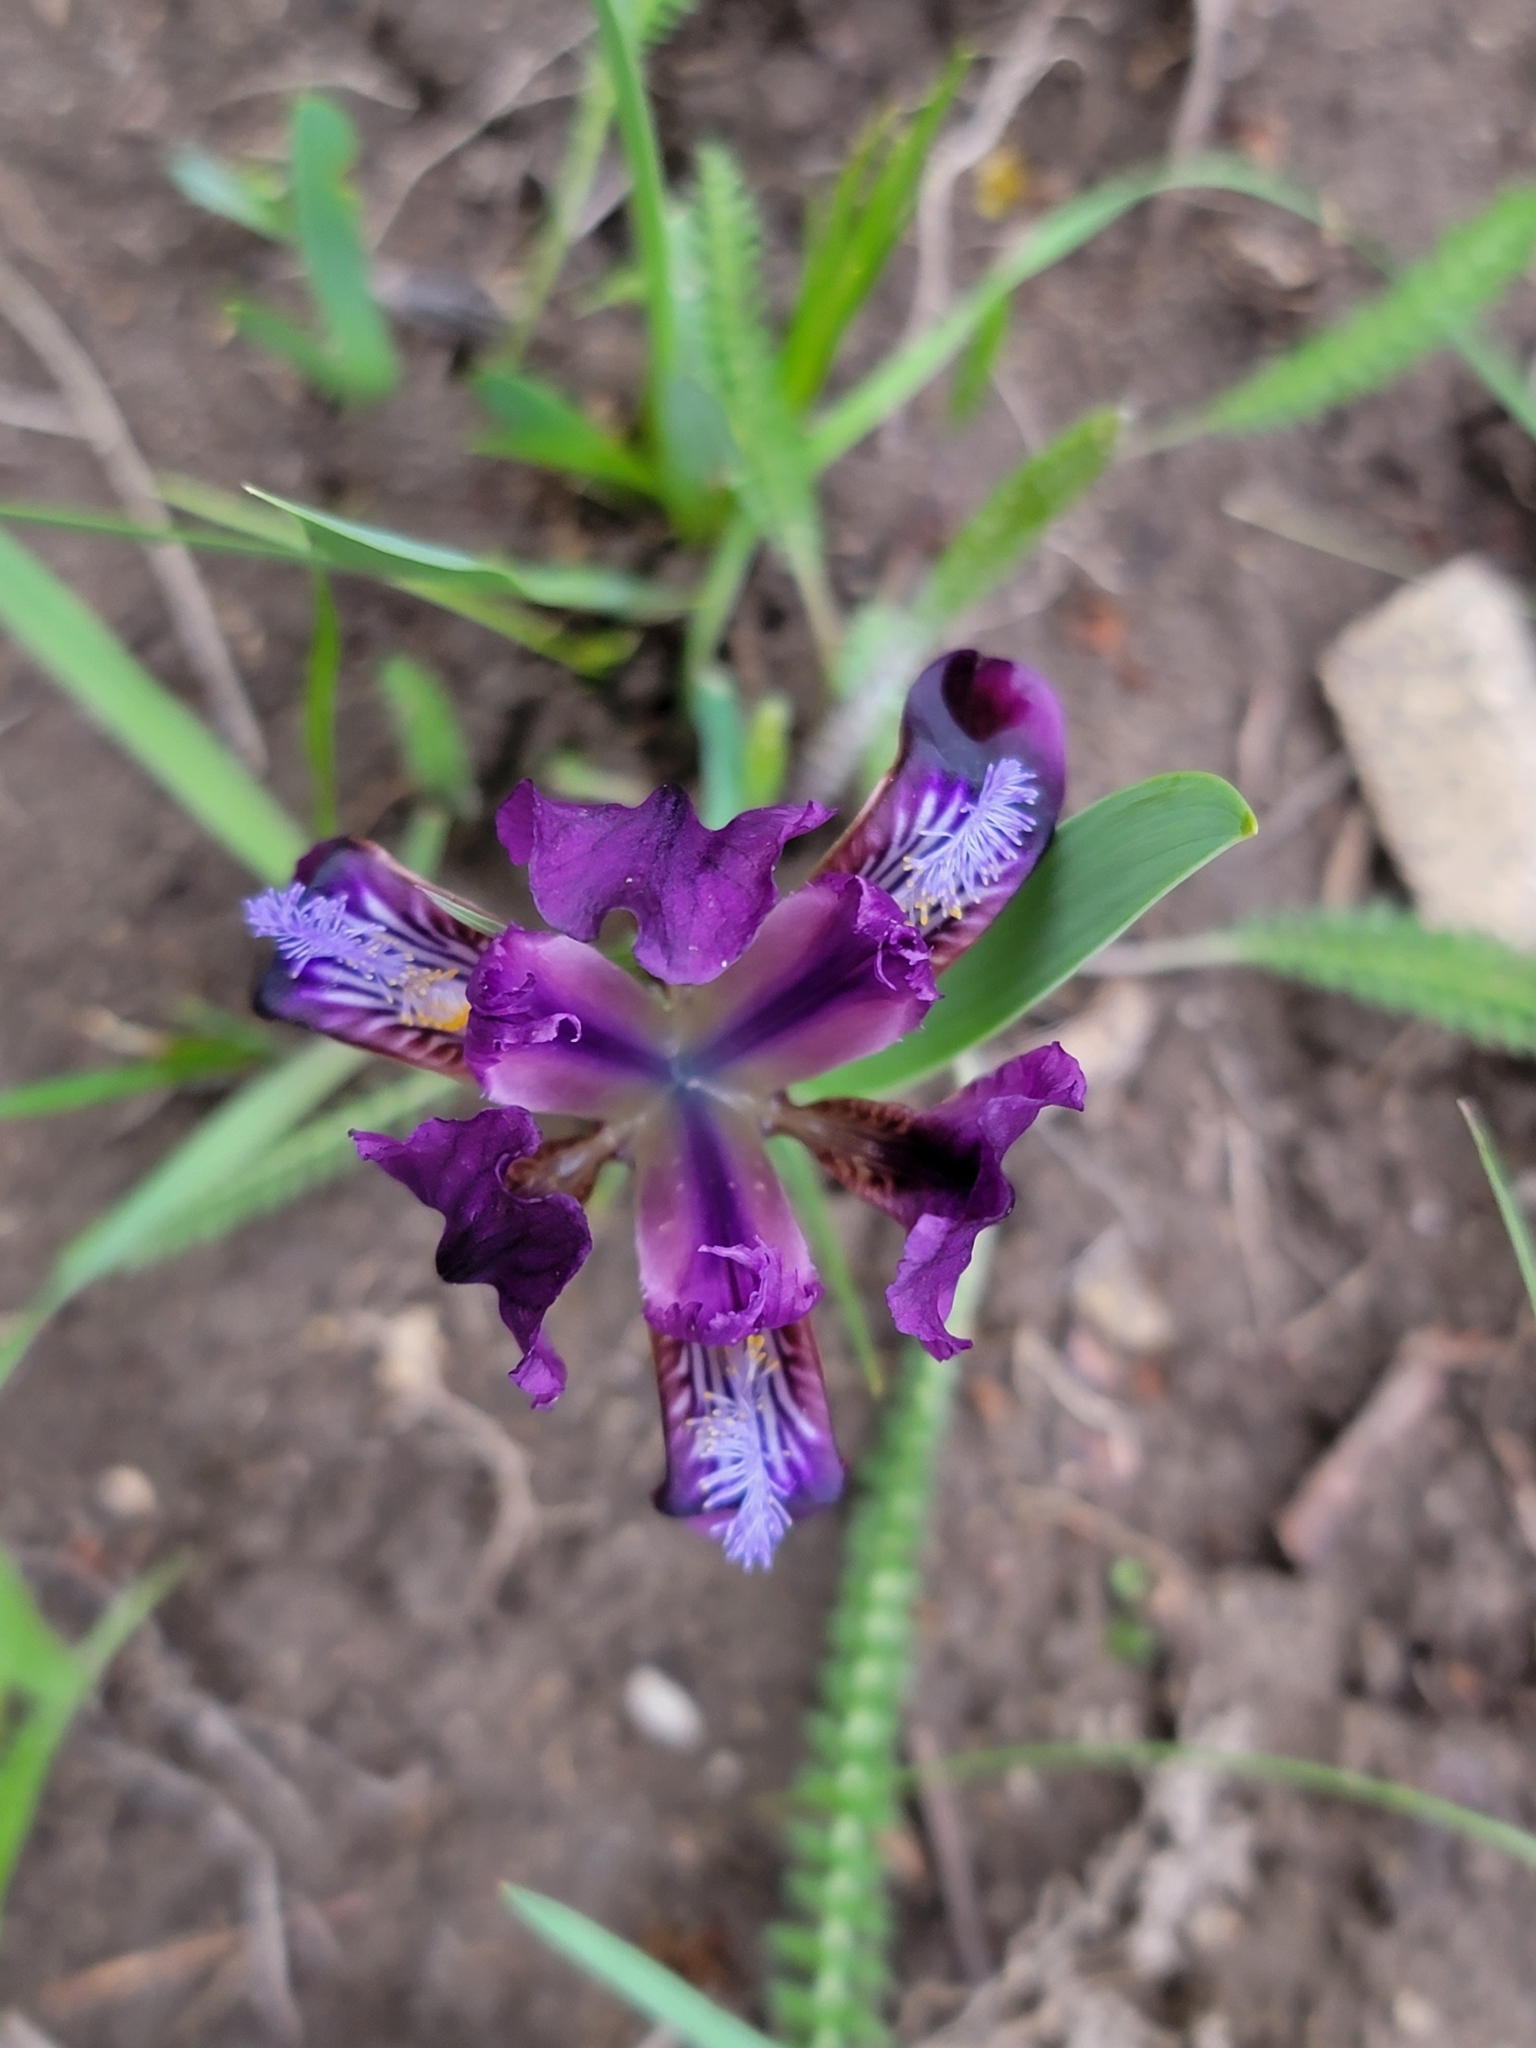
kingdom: Plantae
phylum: Tracheophyta
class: Liliopsida
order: Asparagales
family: Iridaceae
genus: Iris
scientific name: Iris pumila
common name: Dwarf iris
